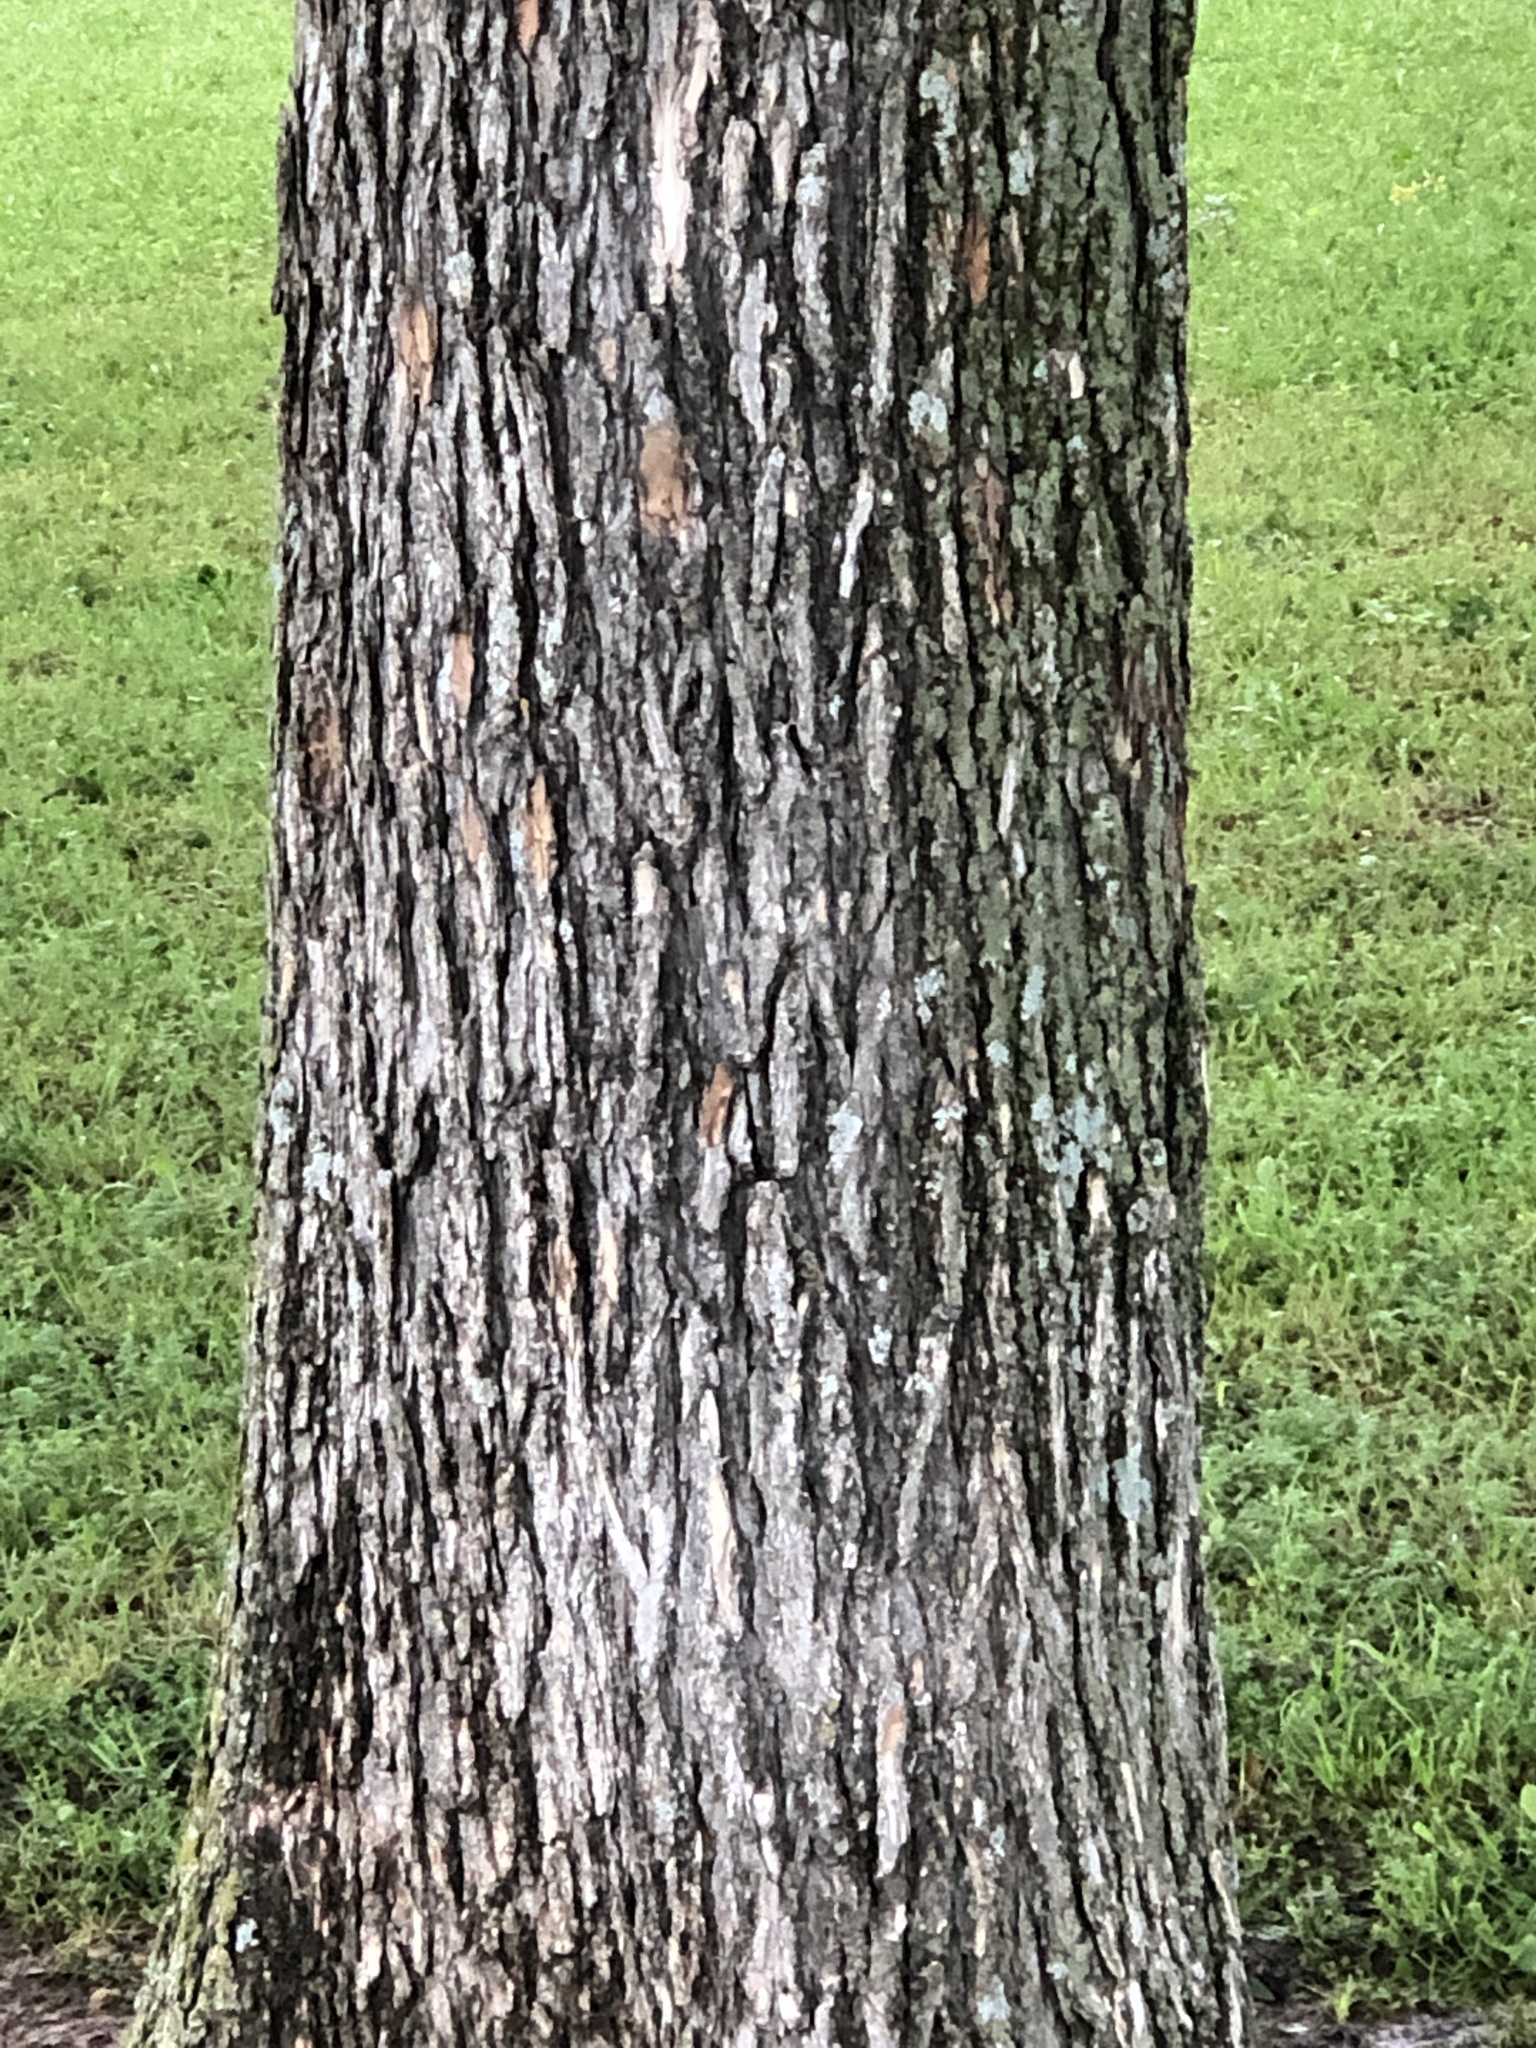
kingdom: Plantae
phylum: Tracheophyta
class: Magnoliopsida
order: Rosales
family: Ulmaceae
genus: Ulmus
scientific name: Ulmus crassifolia
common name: Basket elm
